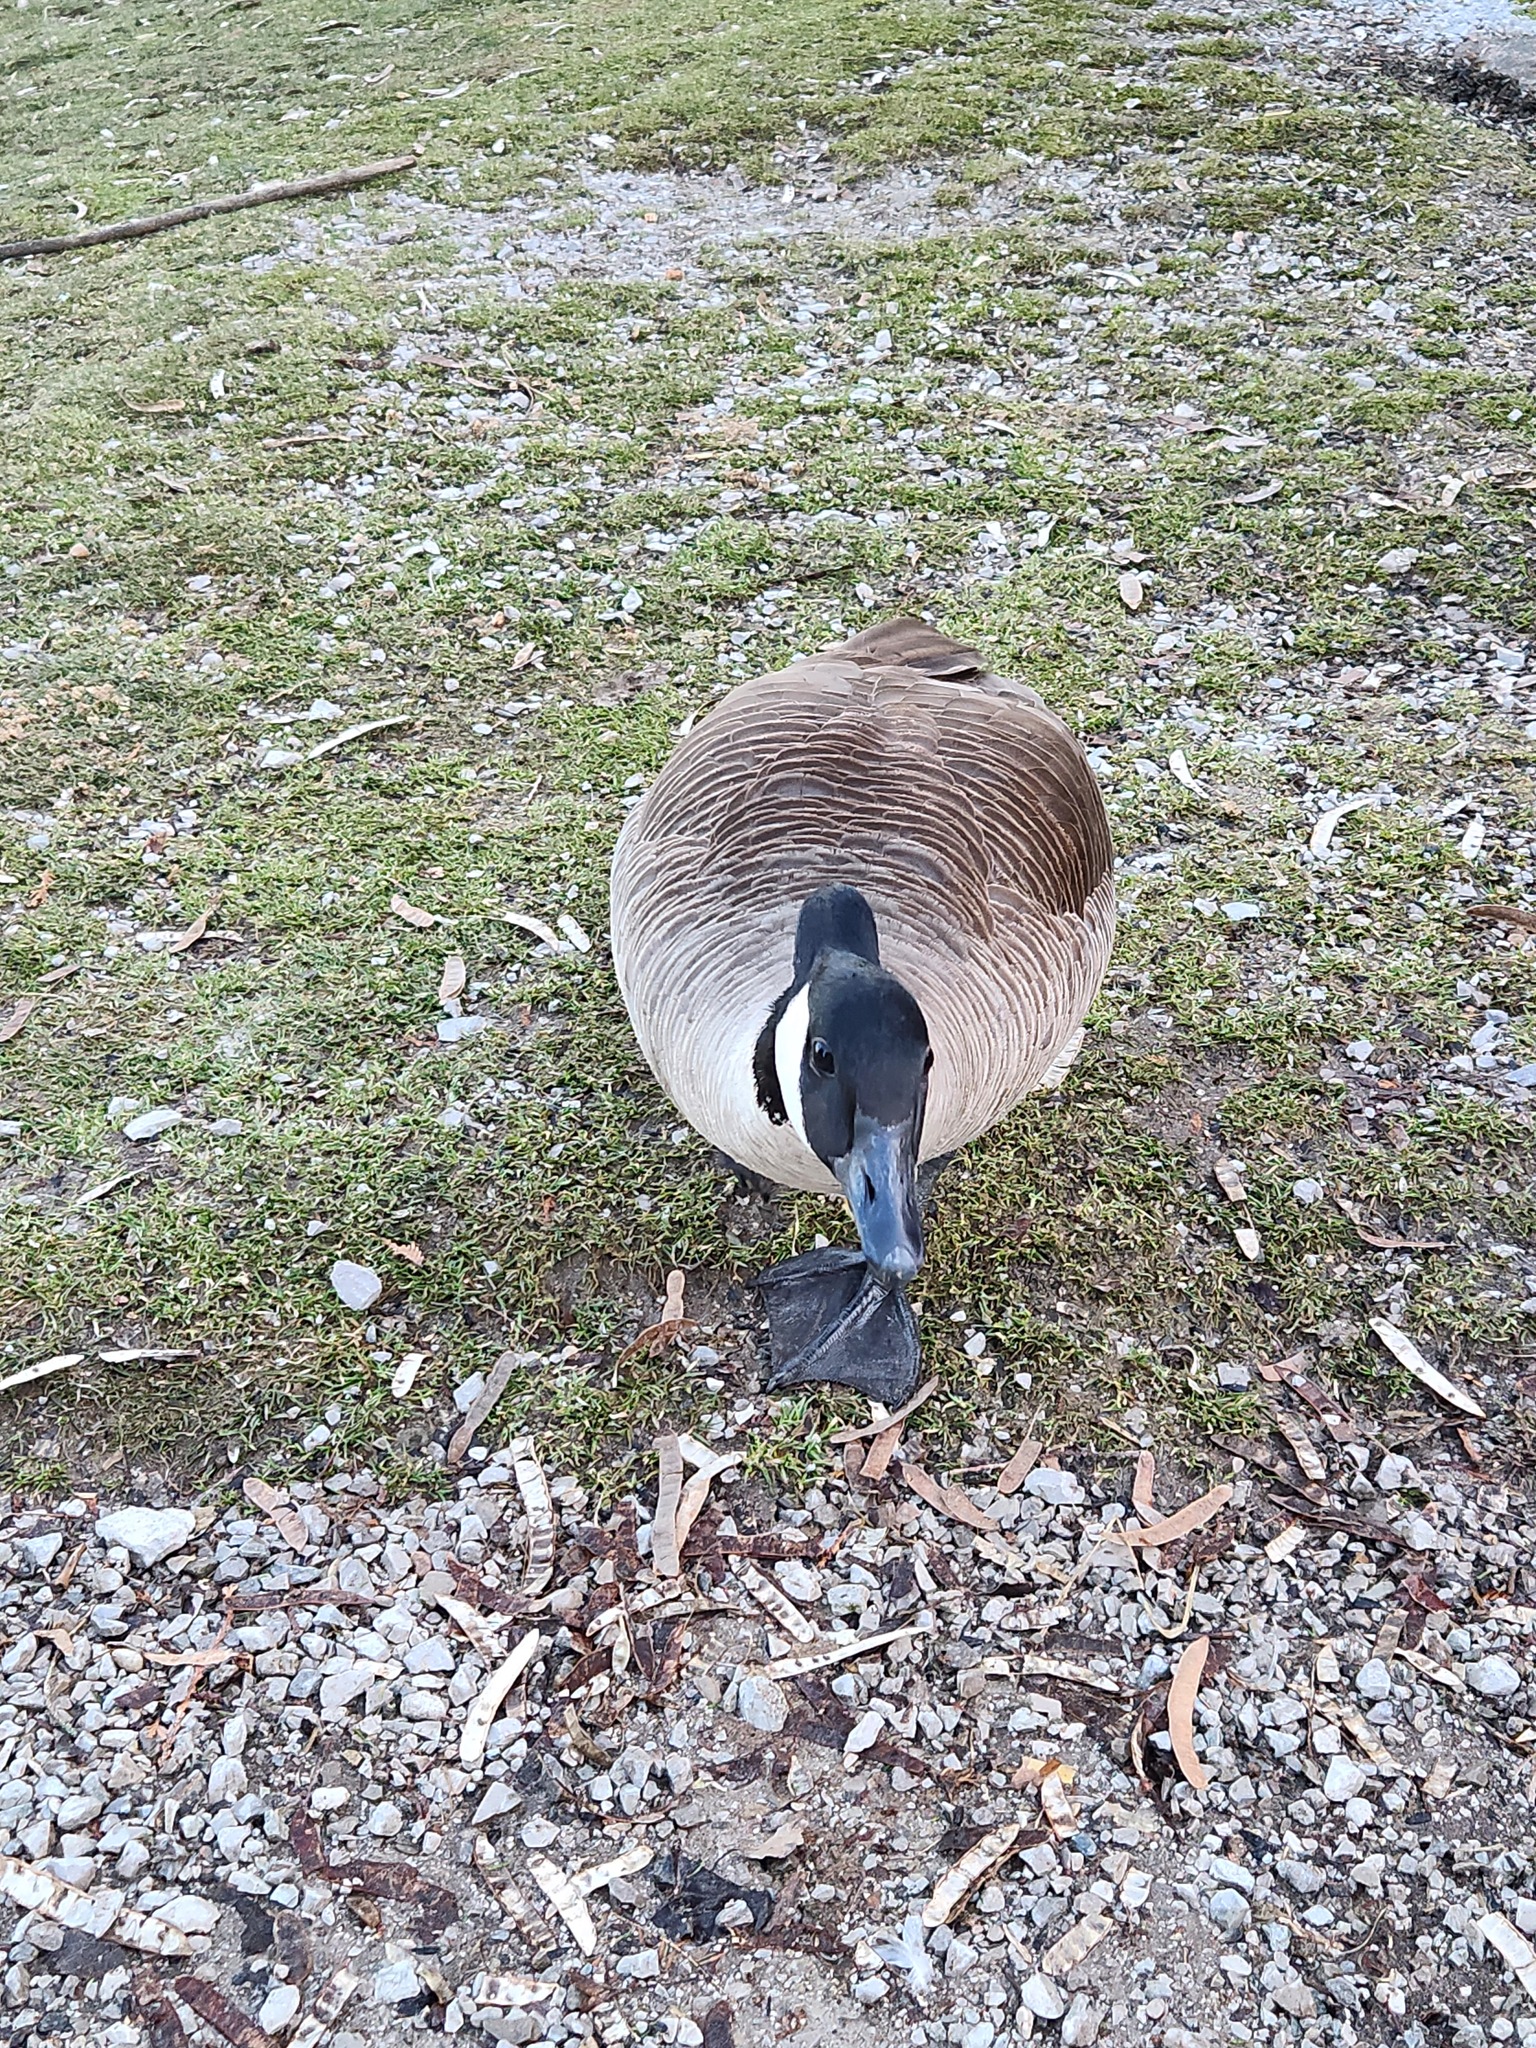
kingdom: Animalia
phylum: Chordata
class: Aves
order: Anseriformes
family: Anatidae
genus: Branta
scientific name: Branta canadensis
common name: Canada goose
